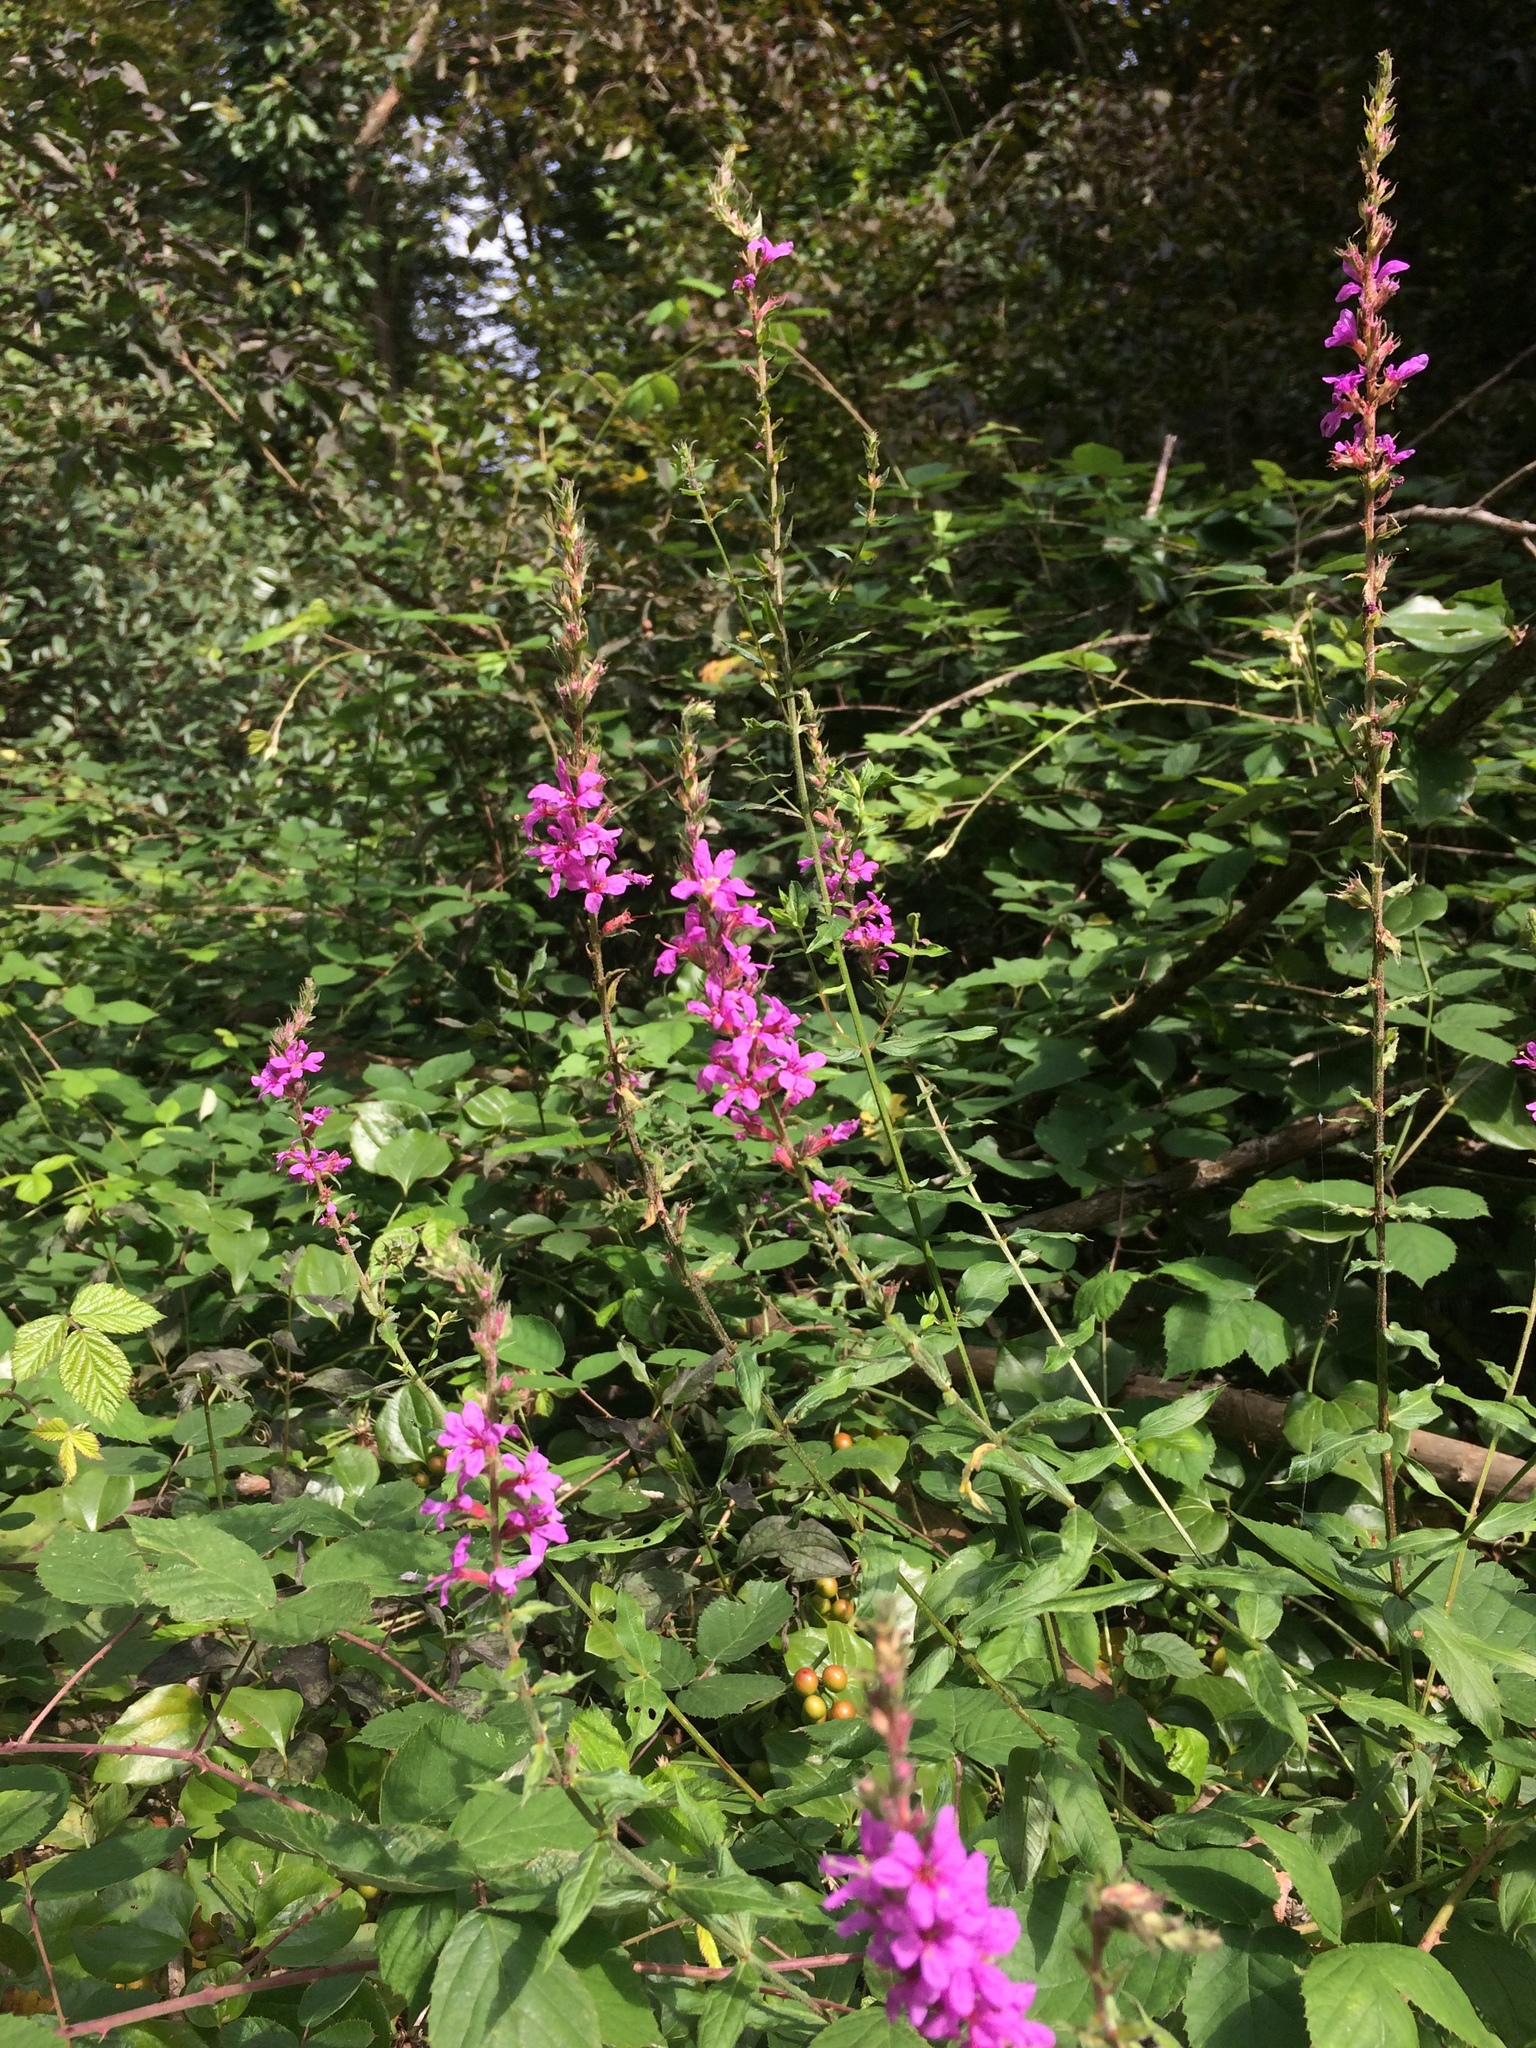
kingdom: Plantae
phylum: Tracheophyta
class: Magnoliopsida
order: Myrtales
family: Lythraceae
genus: Lythrum
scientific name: Lythrum salicaria
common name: Purple loosestrife
